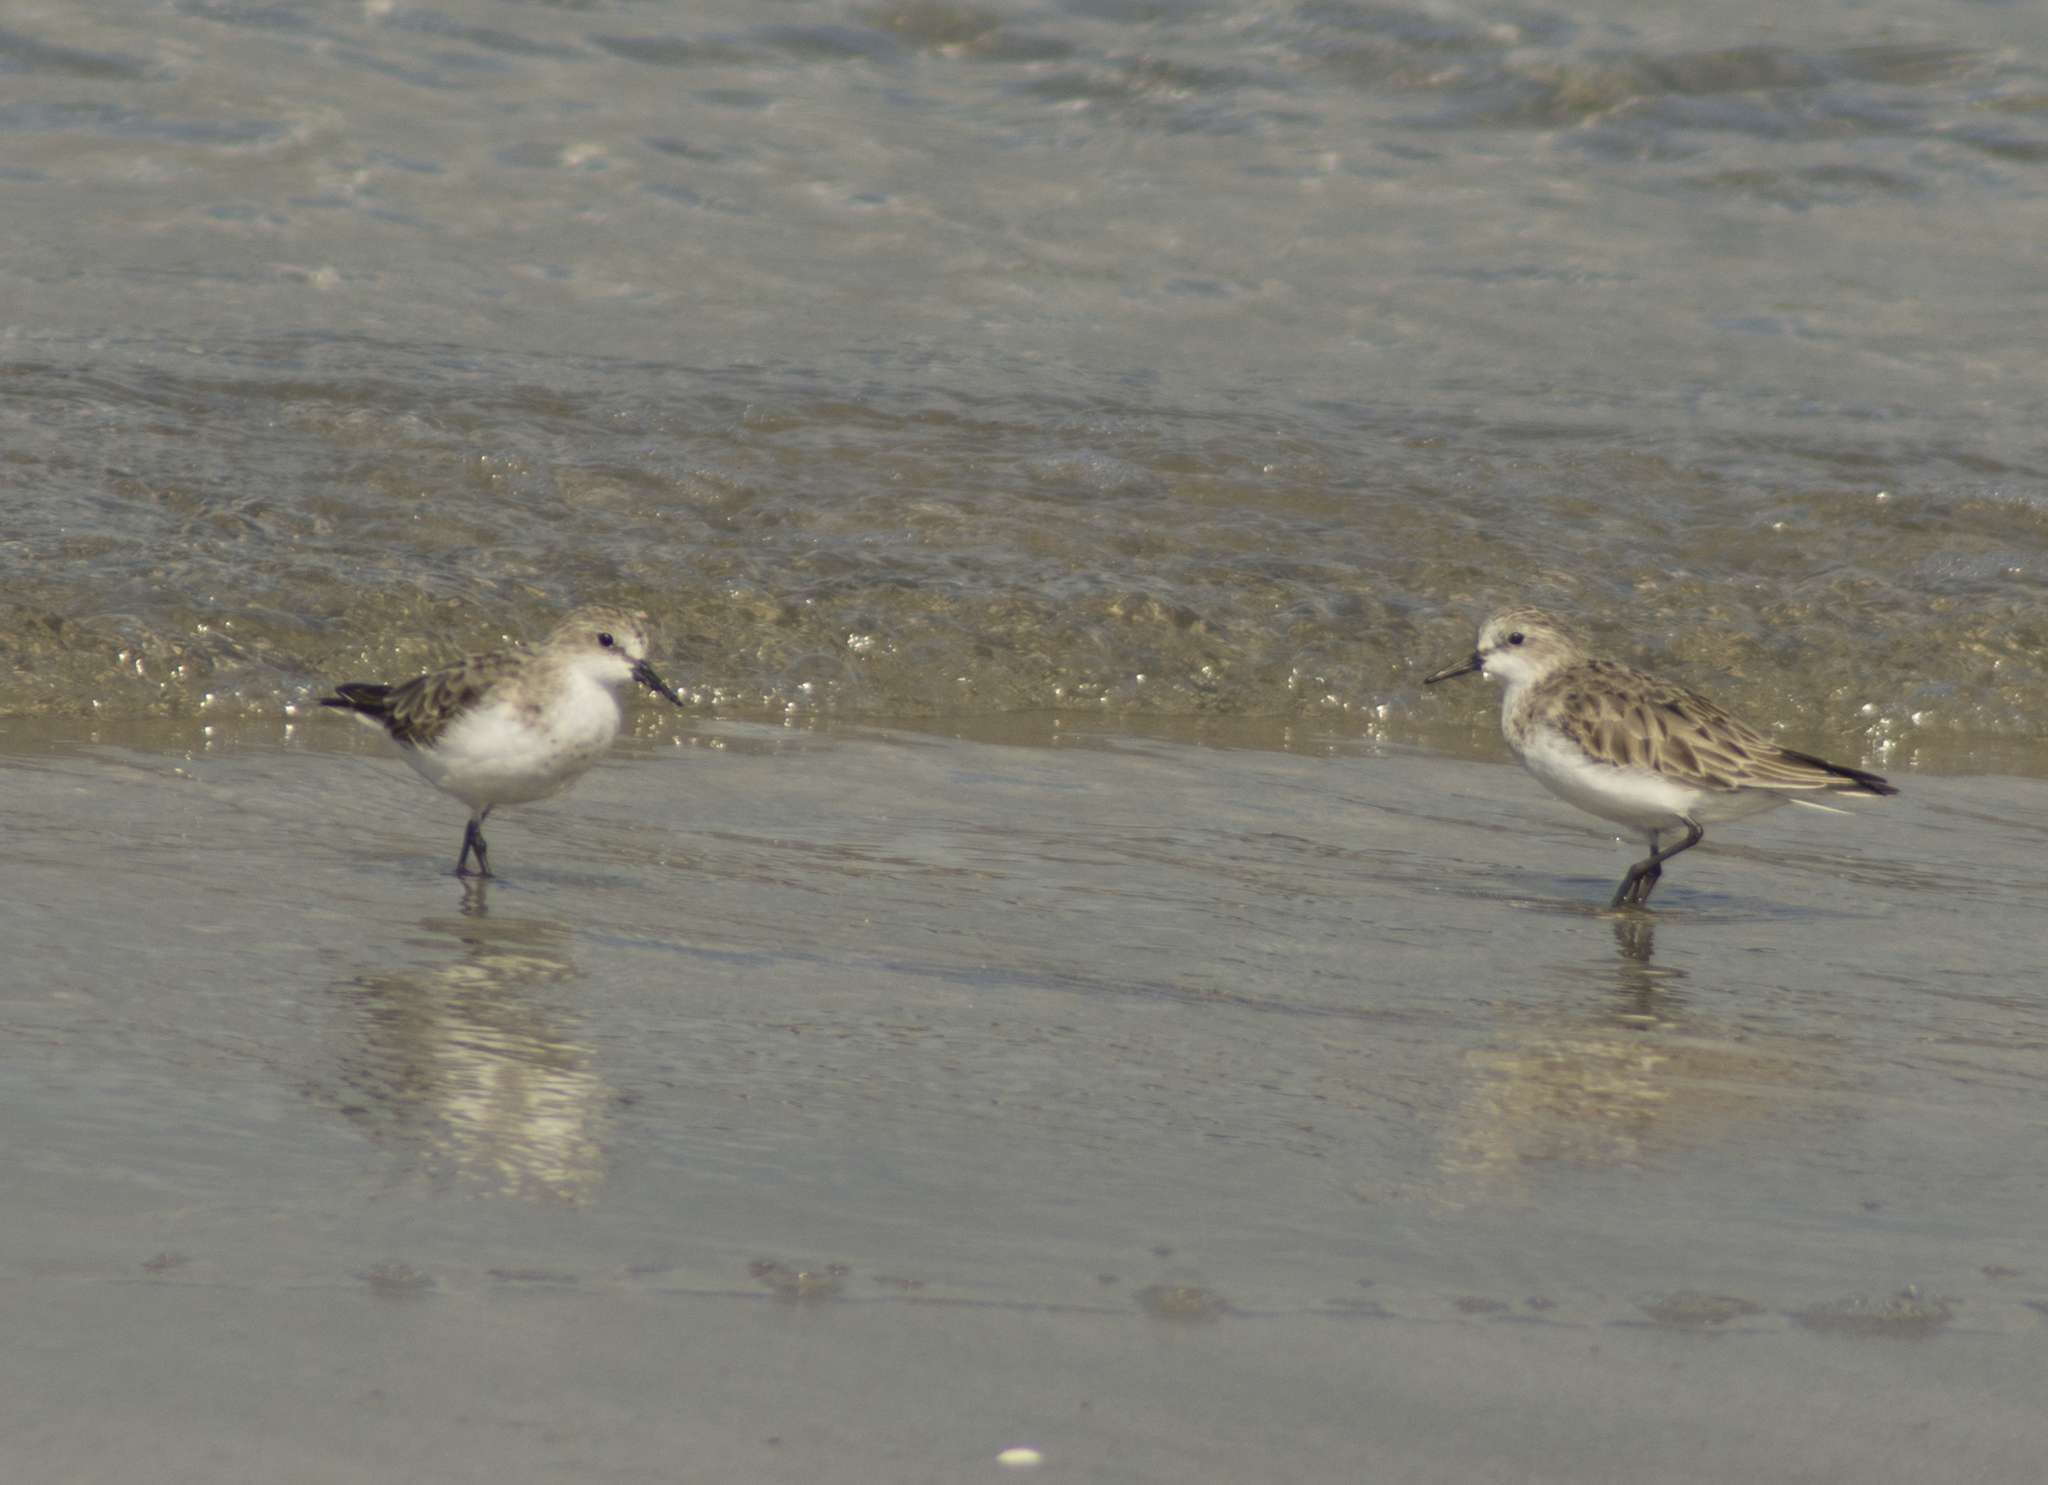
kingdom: Animalia
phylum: Chordata
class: Aves
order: Charadriiformes
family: Scolopacidae
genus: Calidris
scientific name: Calidris ruficollis
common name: Red-necked stint
